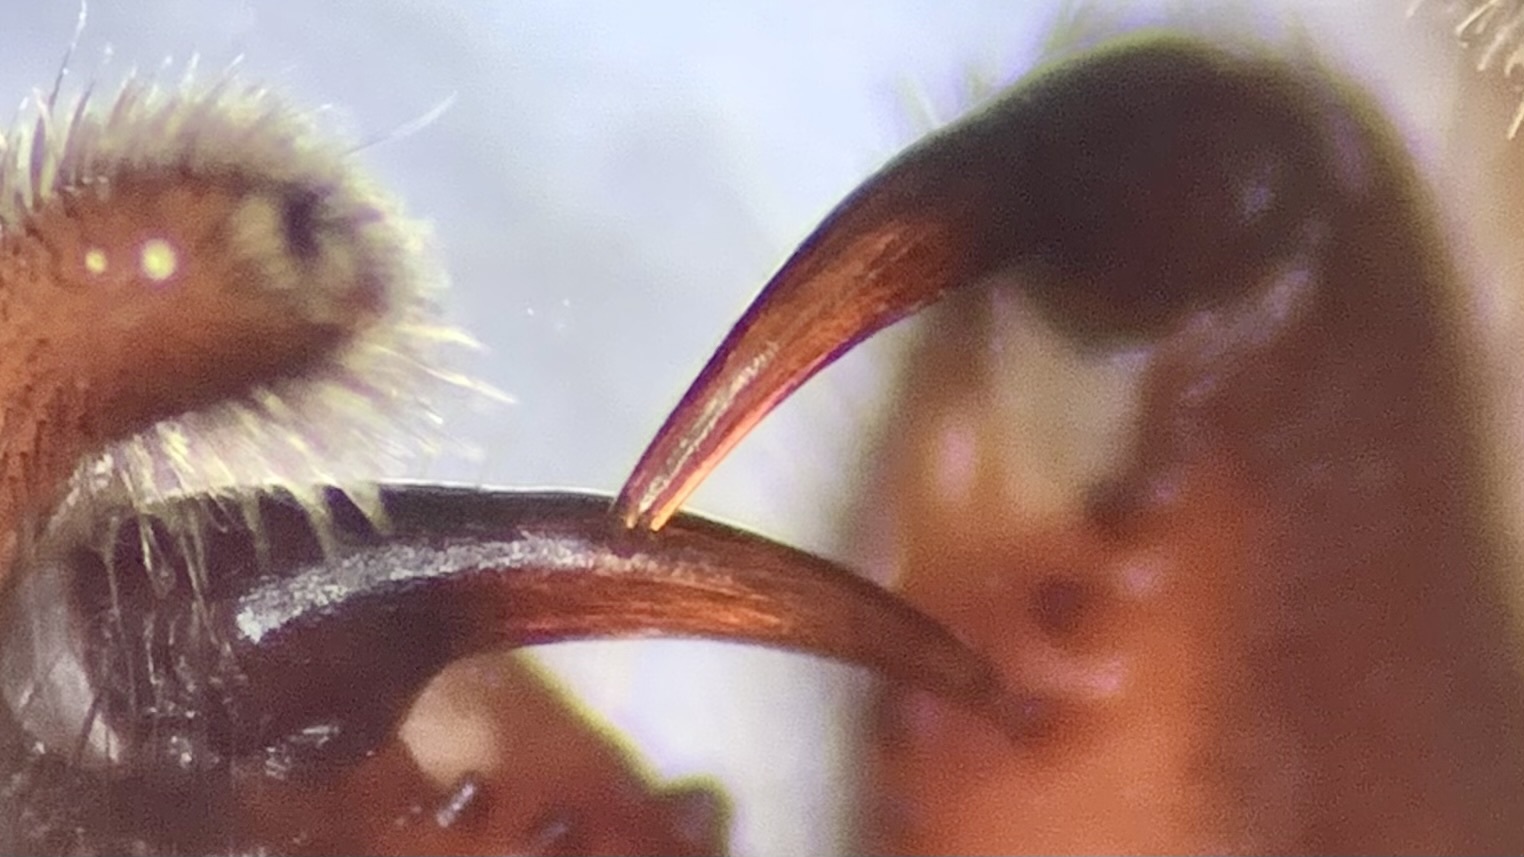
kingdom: Animalia
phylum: Arthropoda
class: Arachnida
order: Araneae
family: Lycosidae
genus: Trochosa
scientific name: Trochosa hispanica
